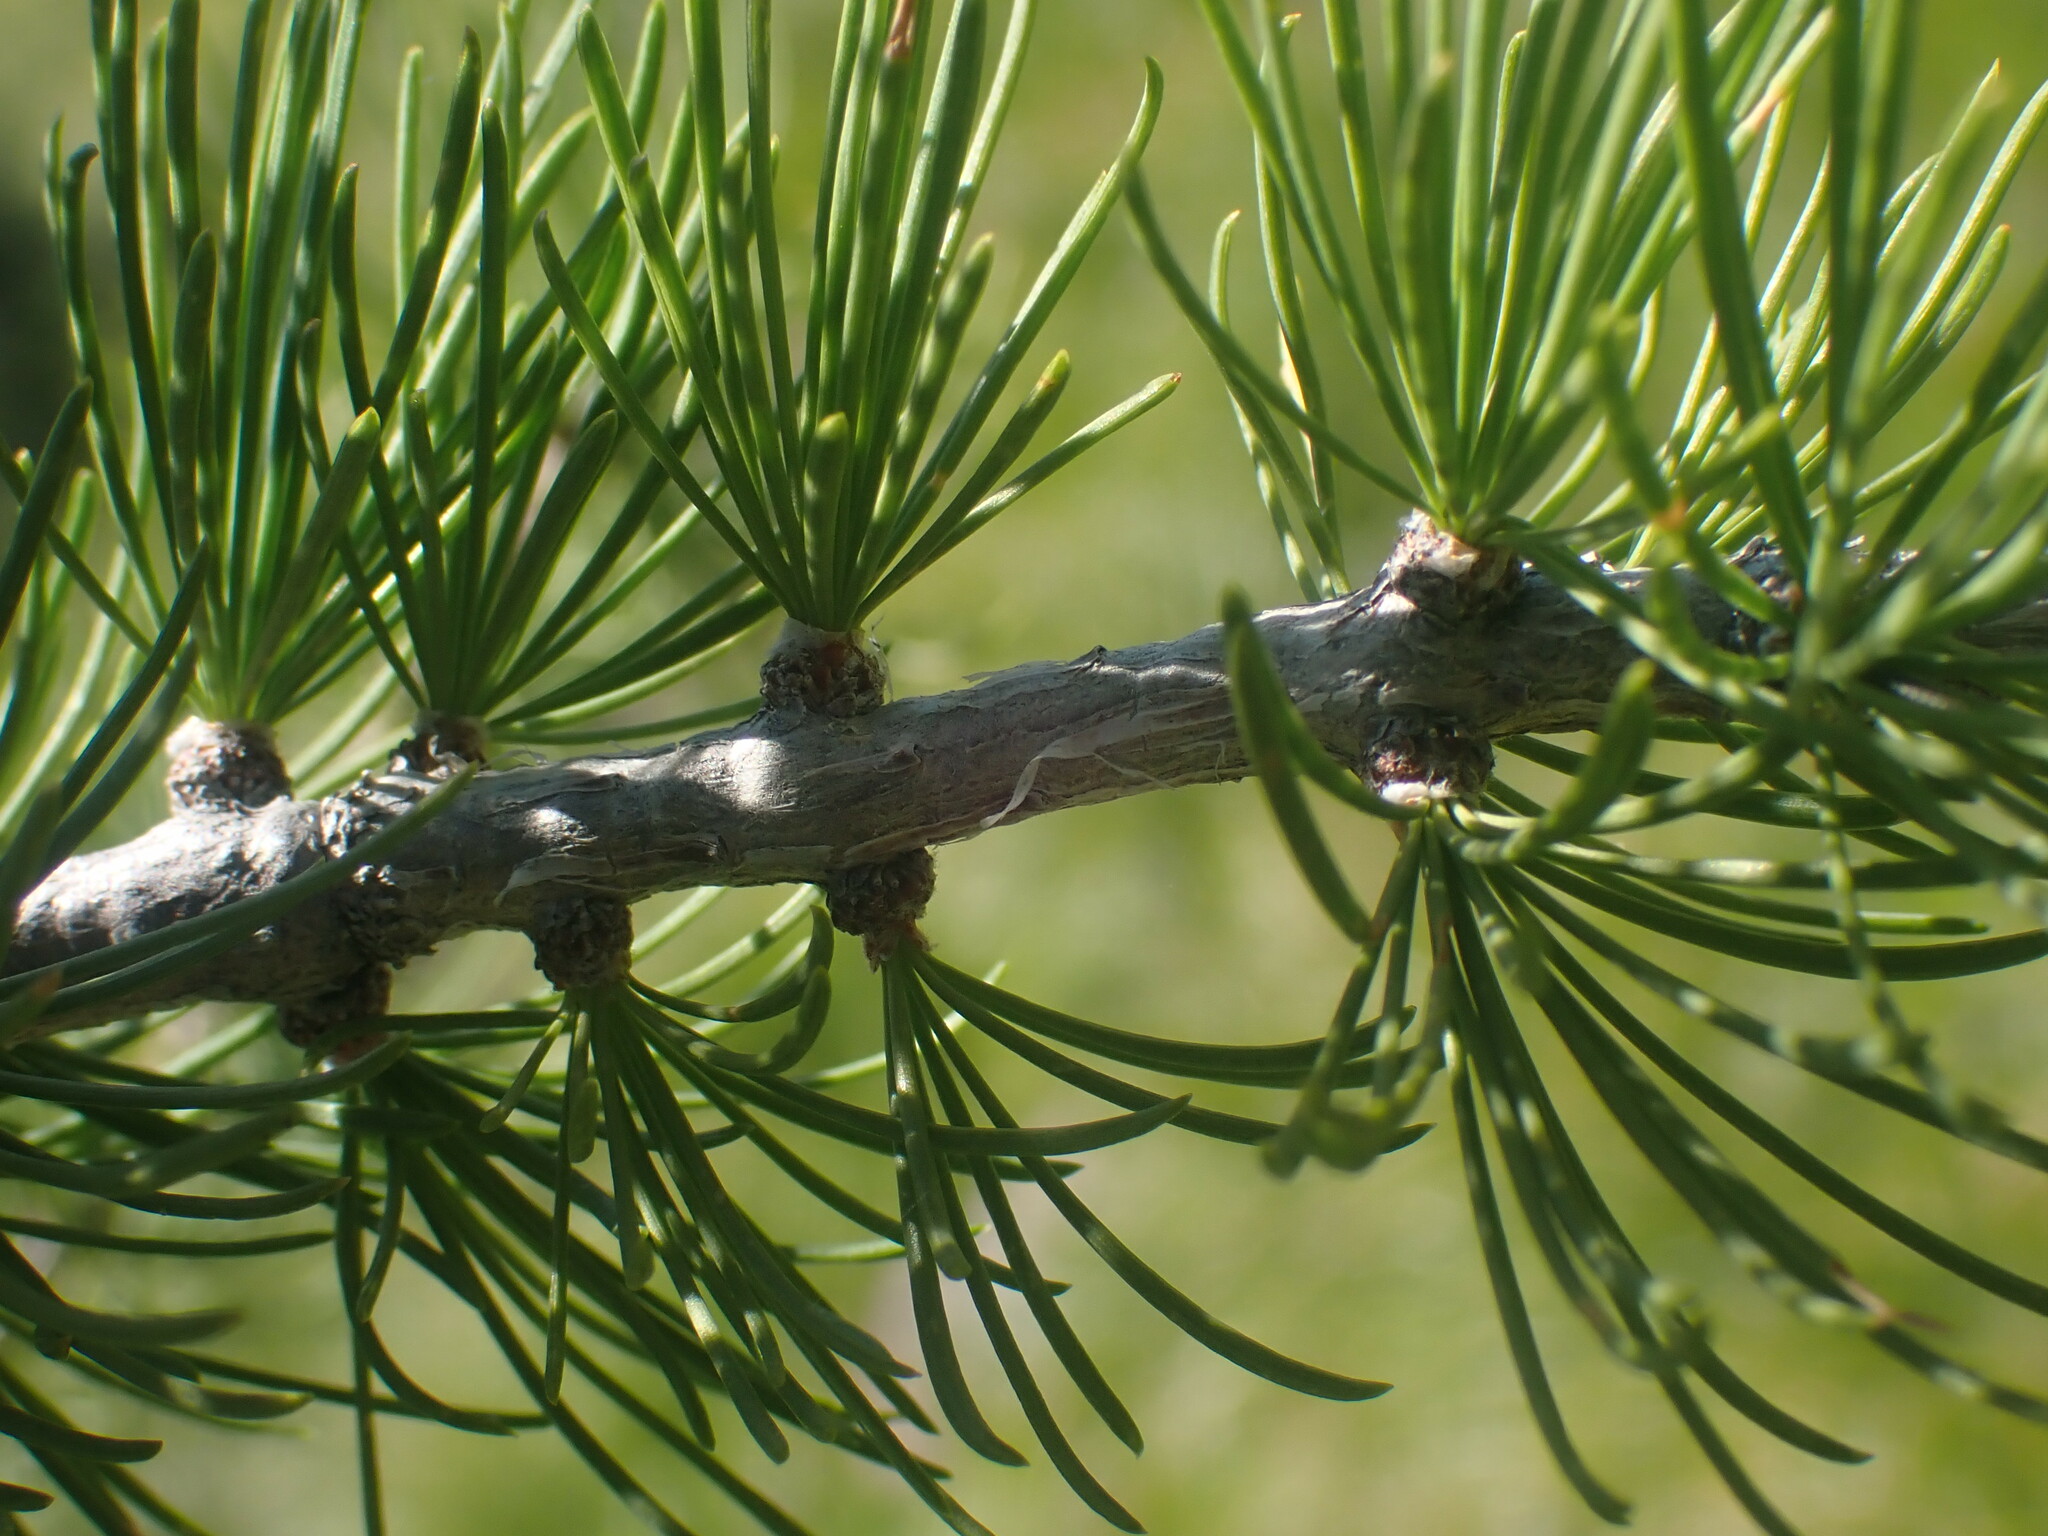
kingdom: Plantae
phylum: Tracheophyta
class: Pinopsida
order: Pinales
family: Pinaceae
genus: Larix
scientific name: Larix lyallii
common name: Alpine larch
